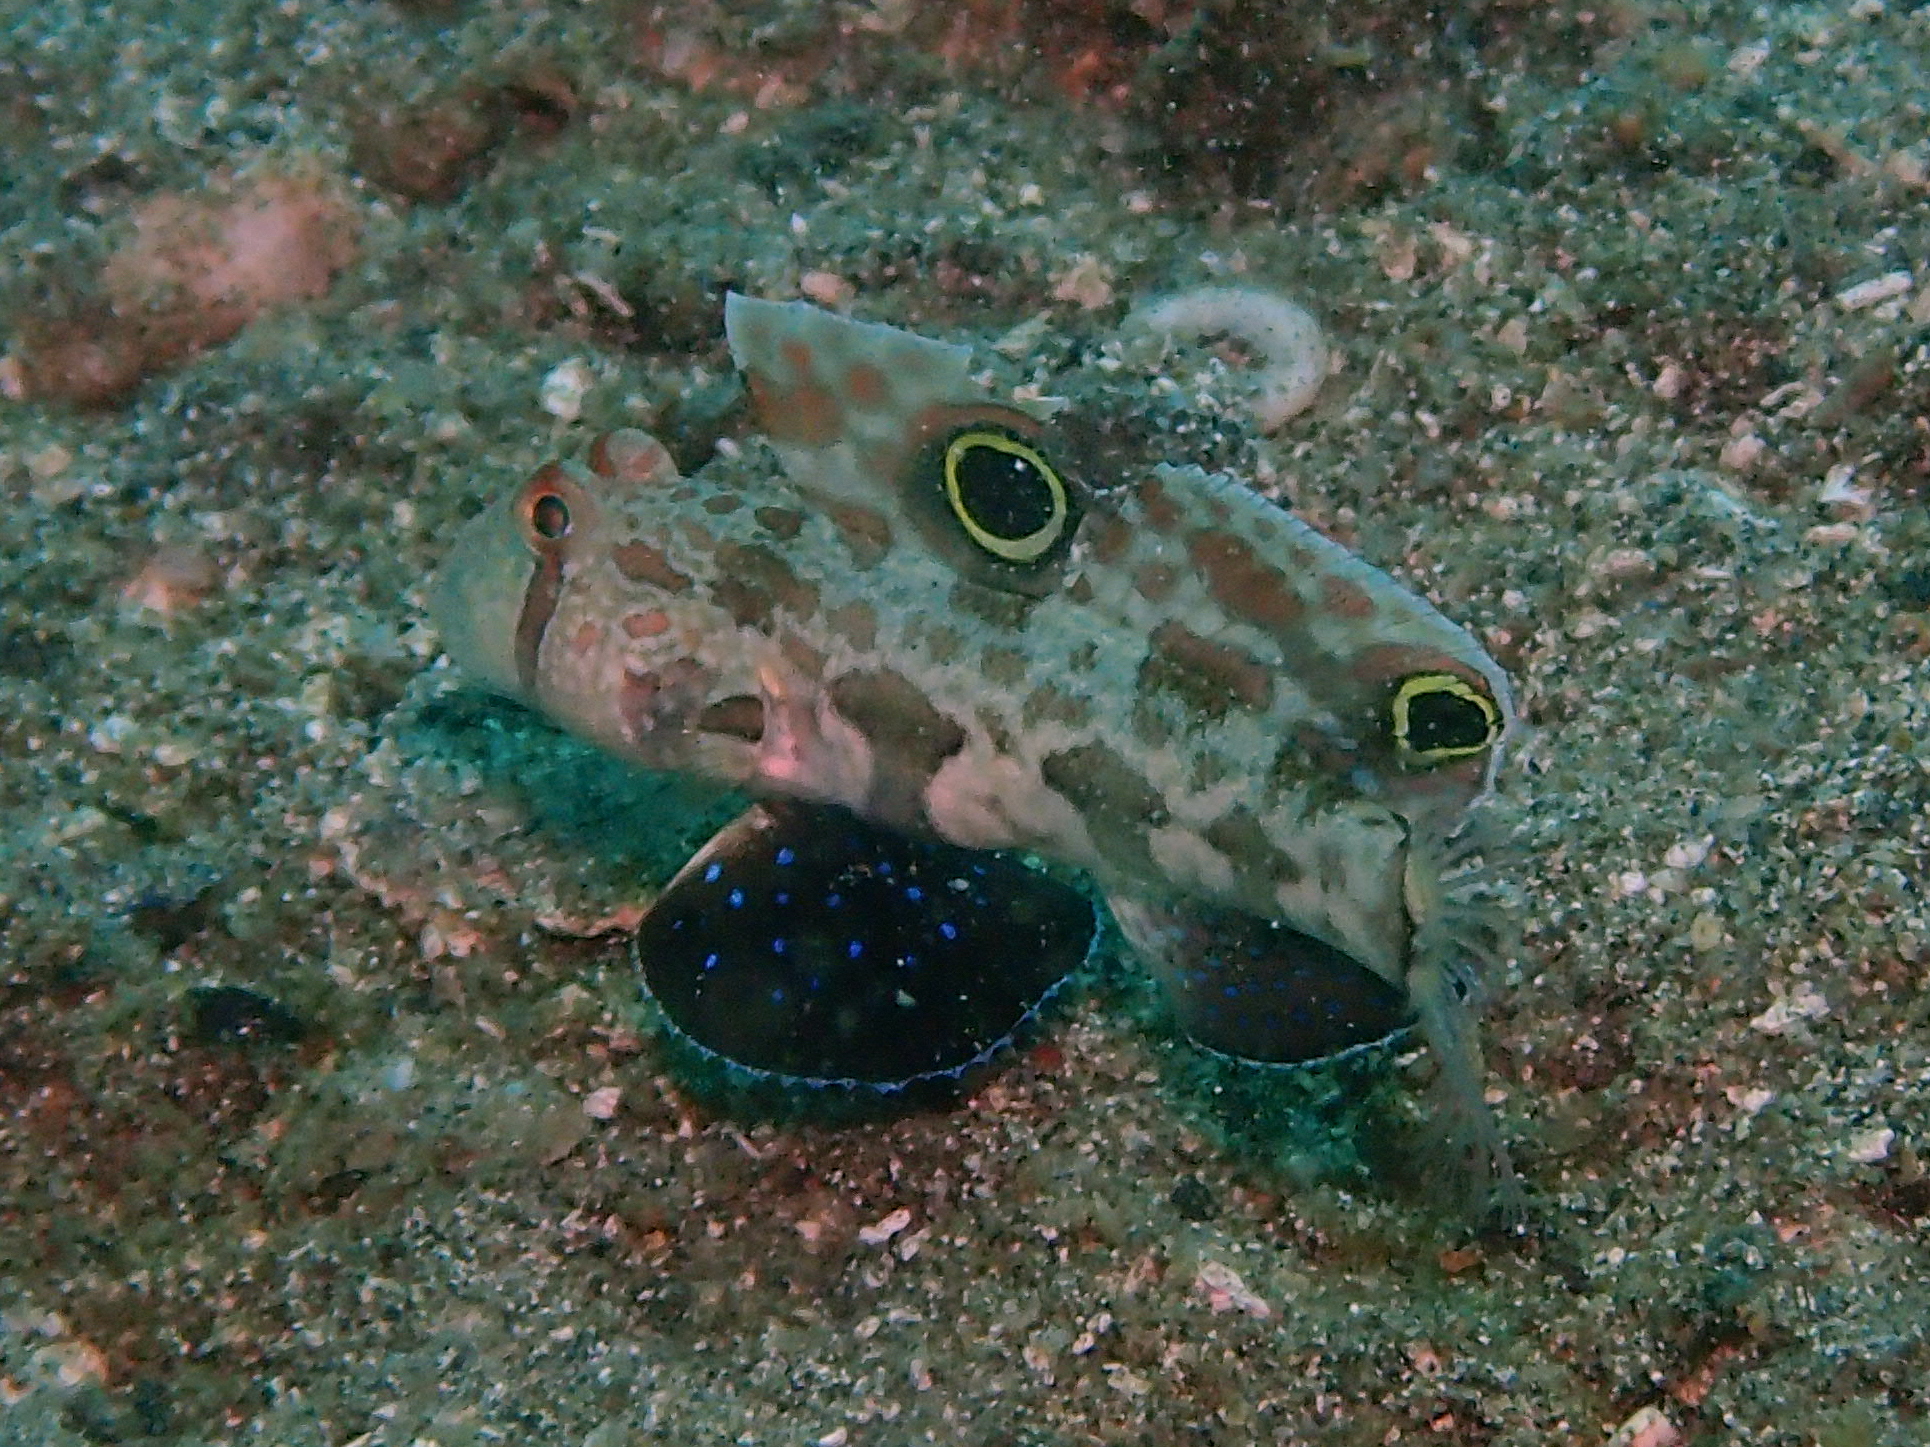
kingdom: Animalia
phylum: Chordata
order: Perciformes
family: Gobiidae
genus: Signigobius
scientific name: Signigobius biocellatus
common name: Crab-eye goby
